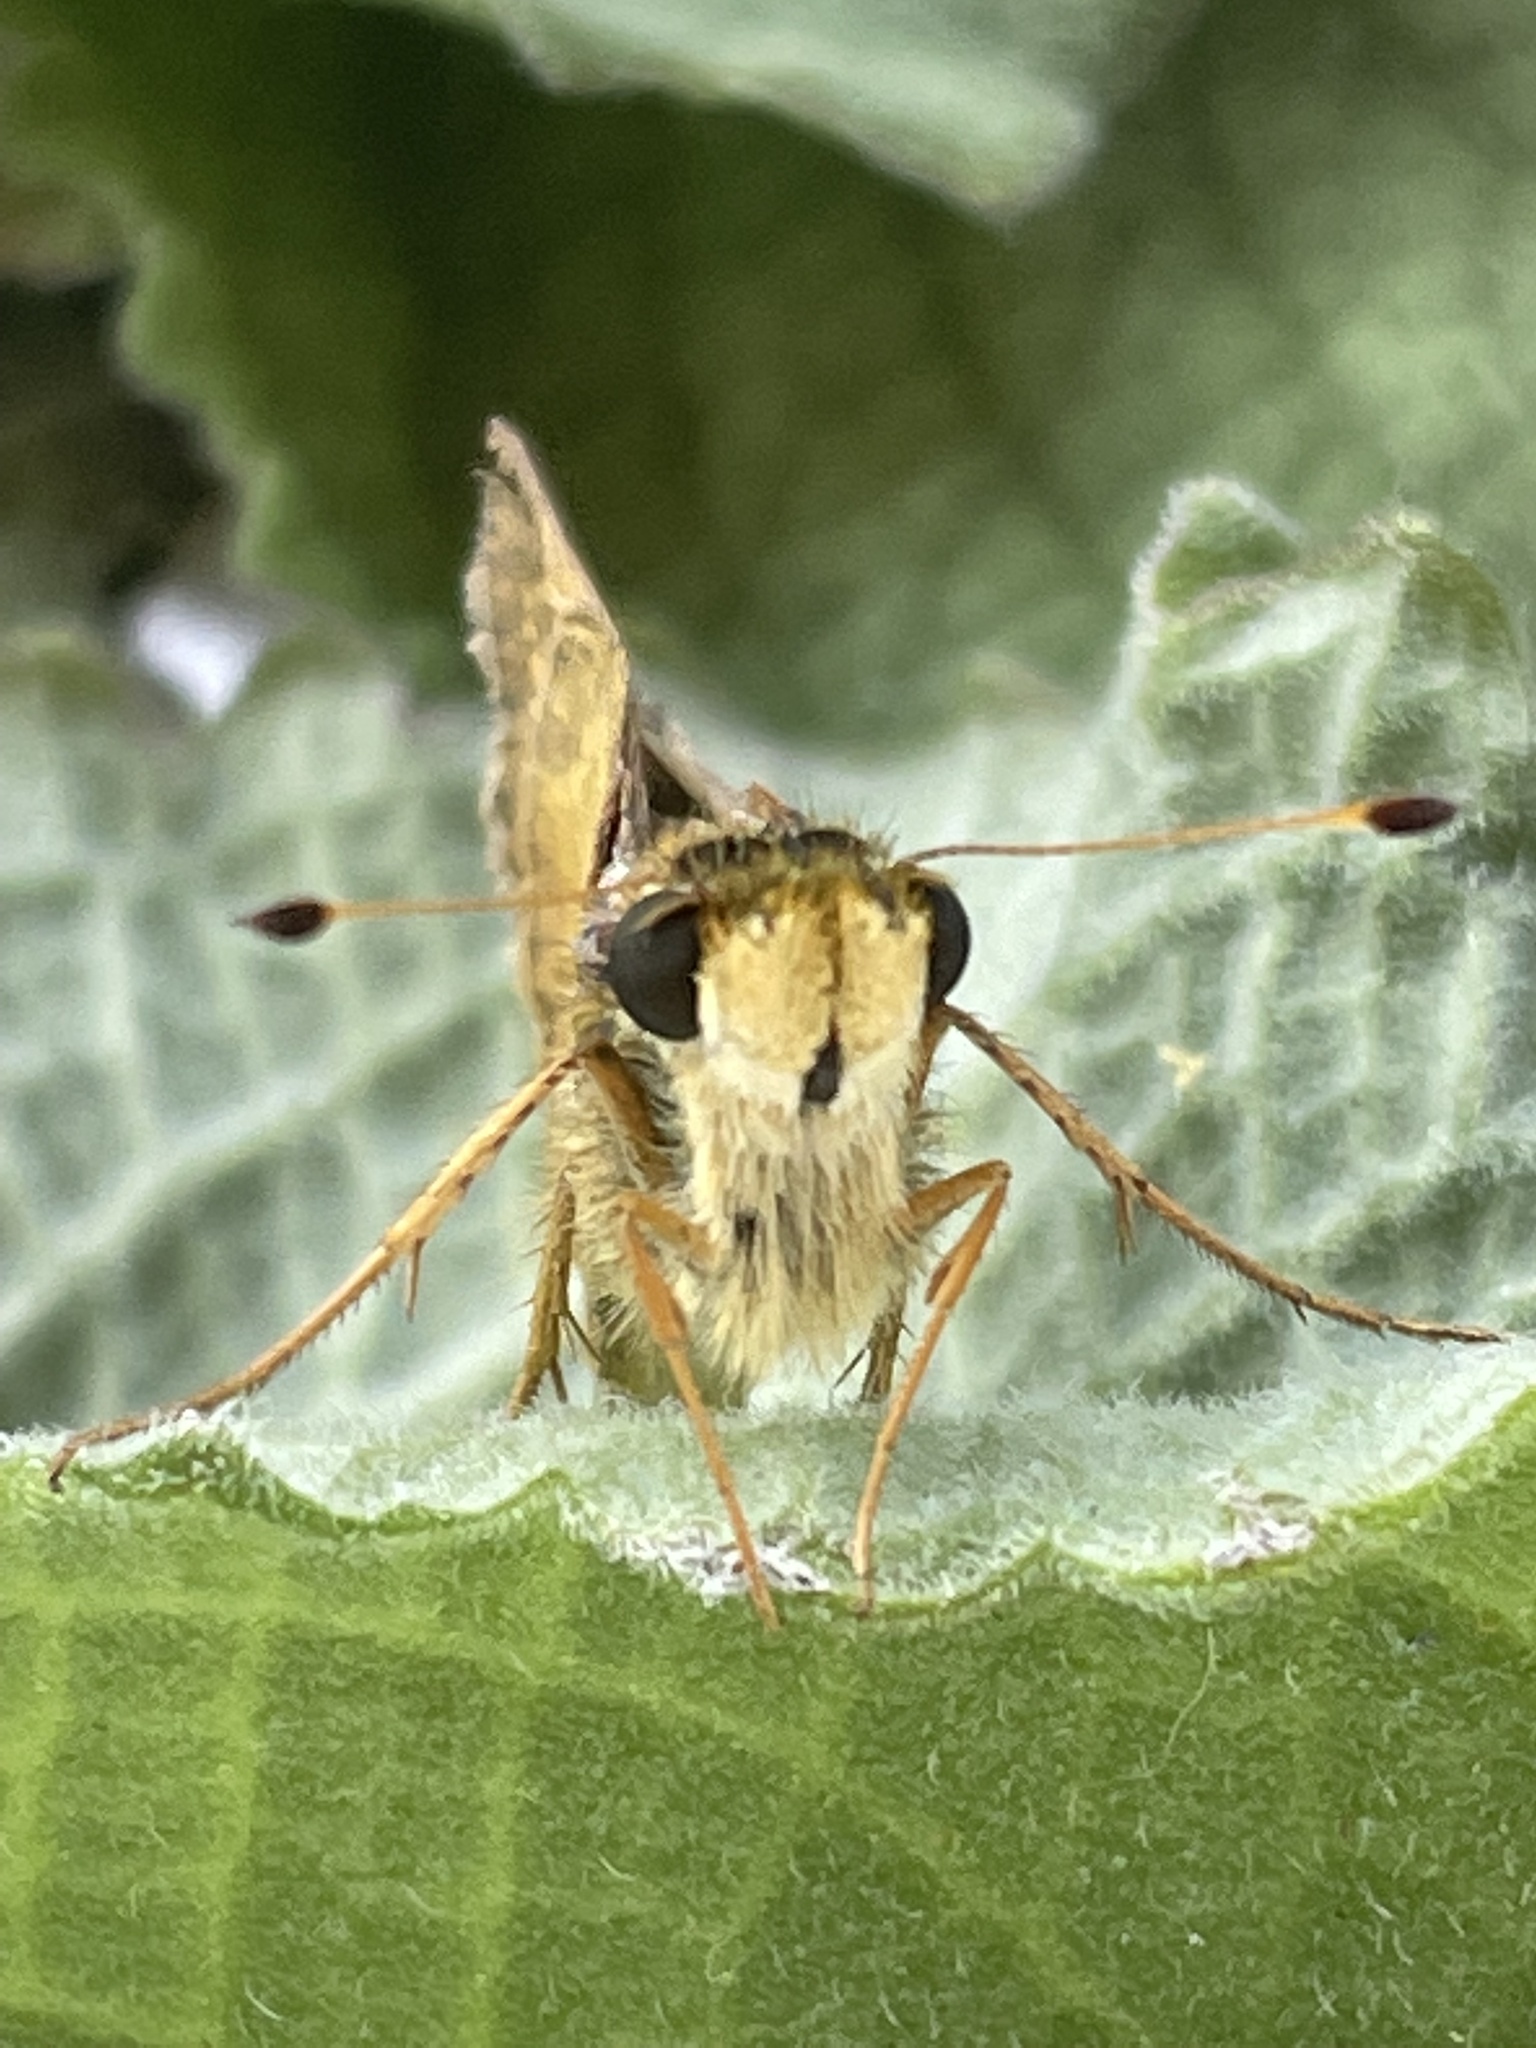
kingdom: Animalia
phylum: Arthropoda
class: Insecta
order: Lepidoptera
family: Hesperiidae
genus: Atalopedes
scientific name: Atalopedes
